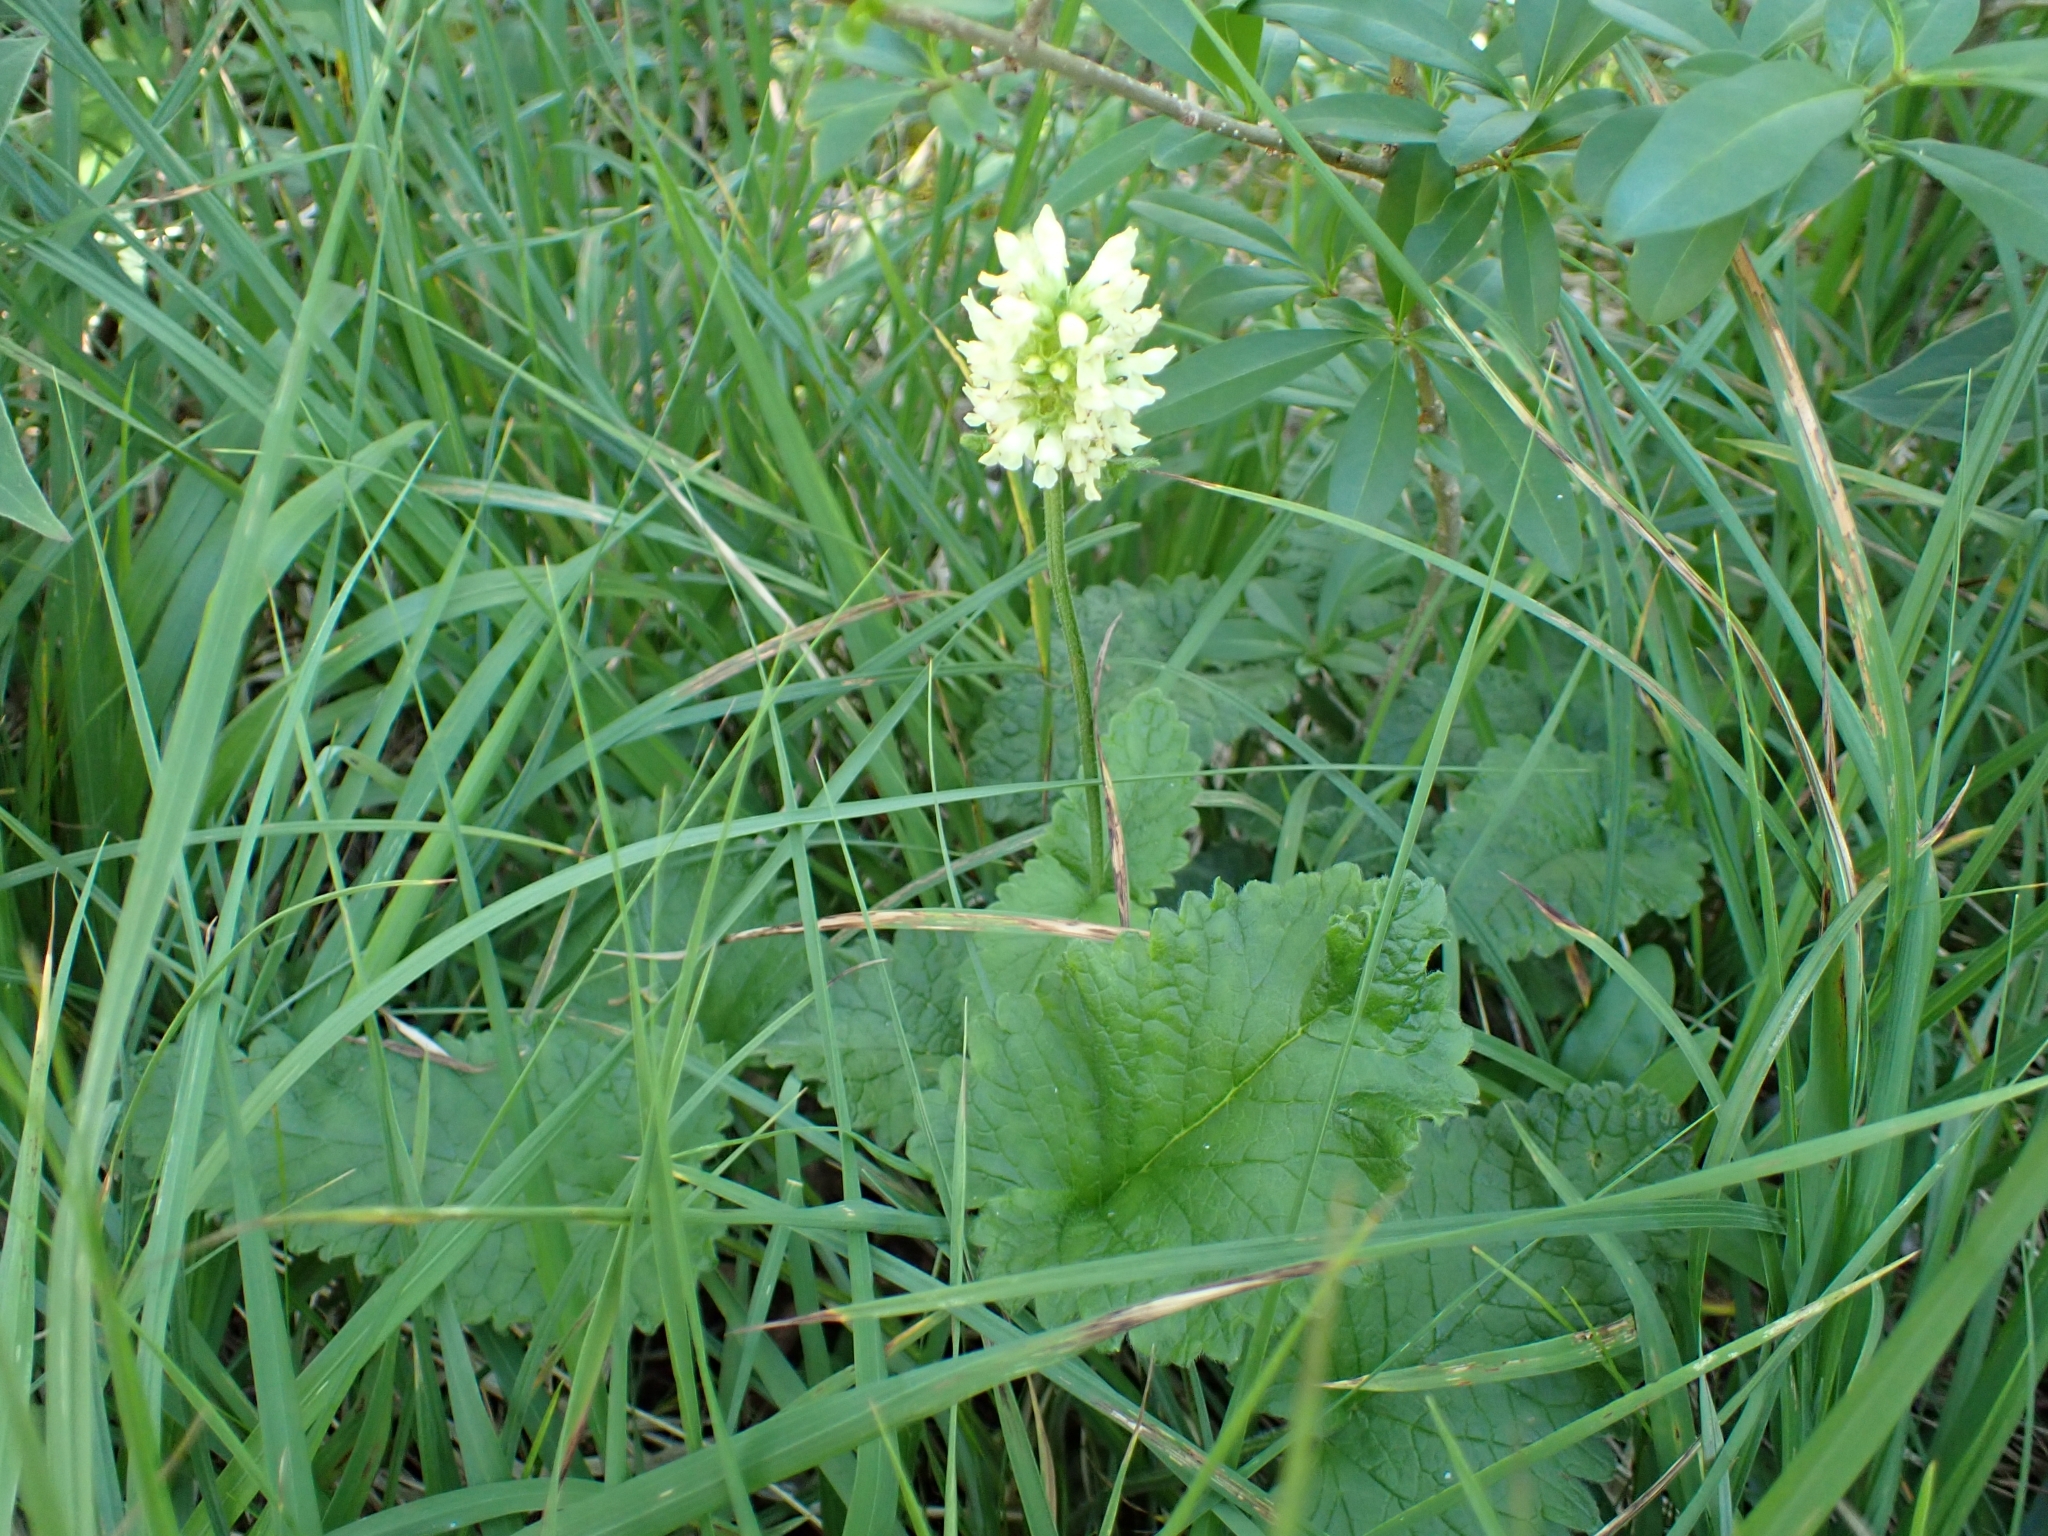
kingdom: Plantae
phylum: Tracheophyta
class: Magnoliopsida
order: Lamiales
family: Lamiaceae
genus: Betonica
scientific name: Betonica alopecuros
